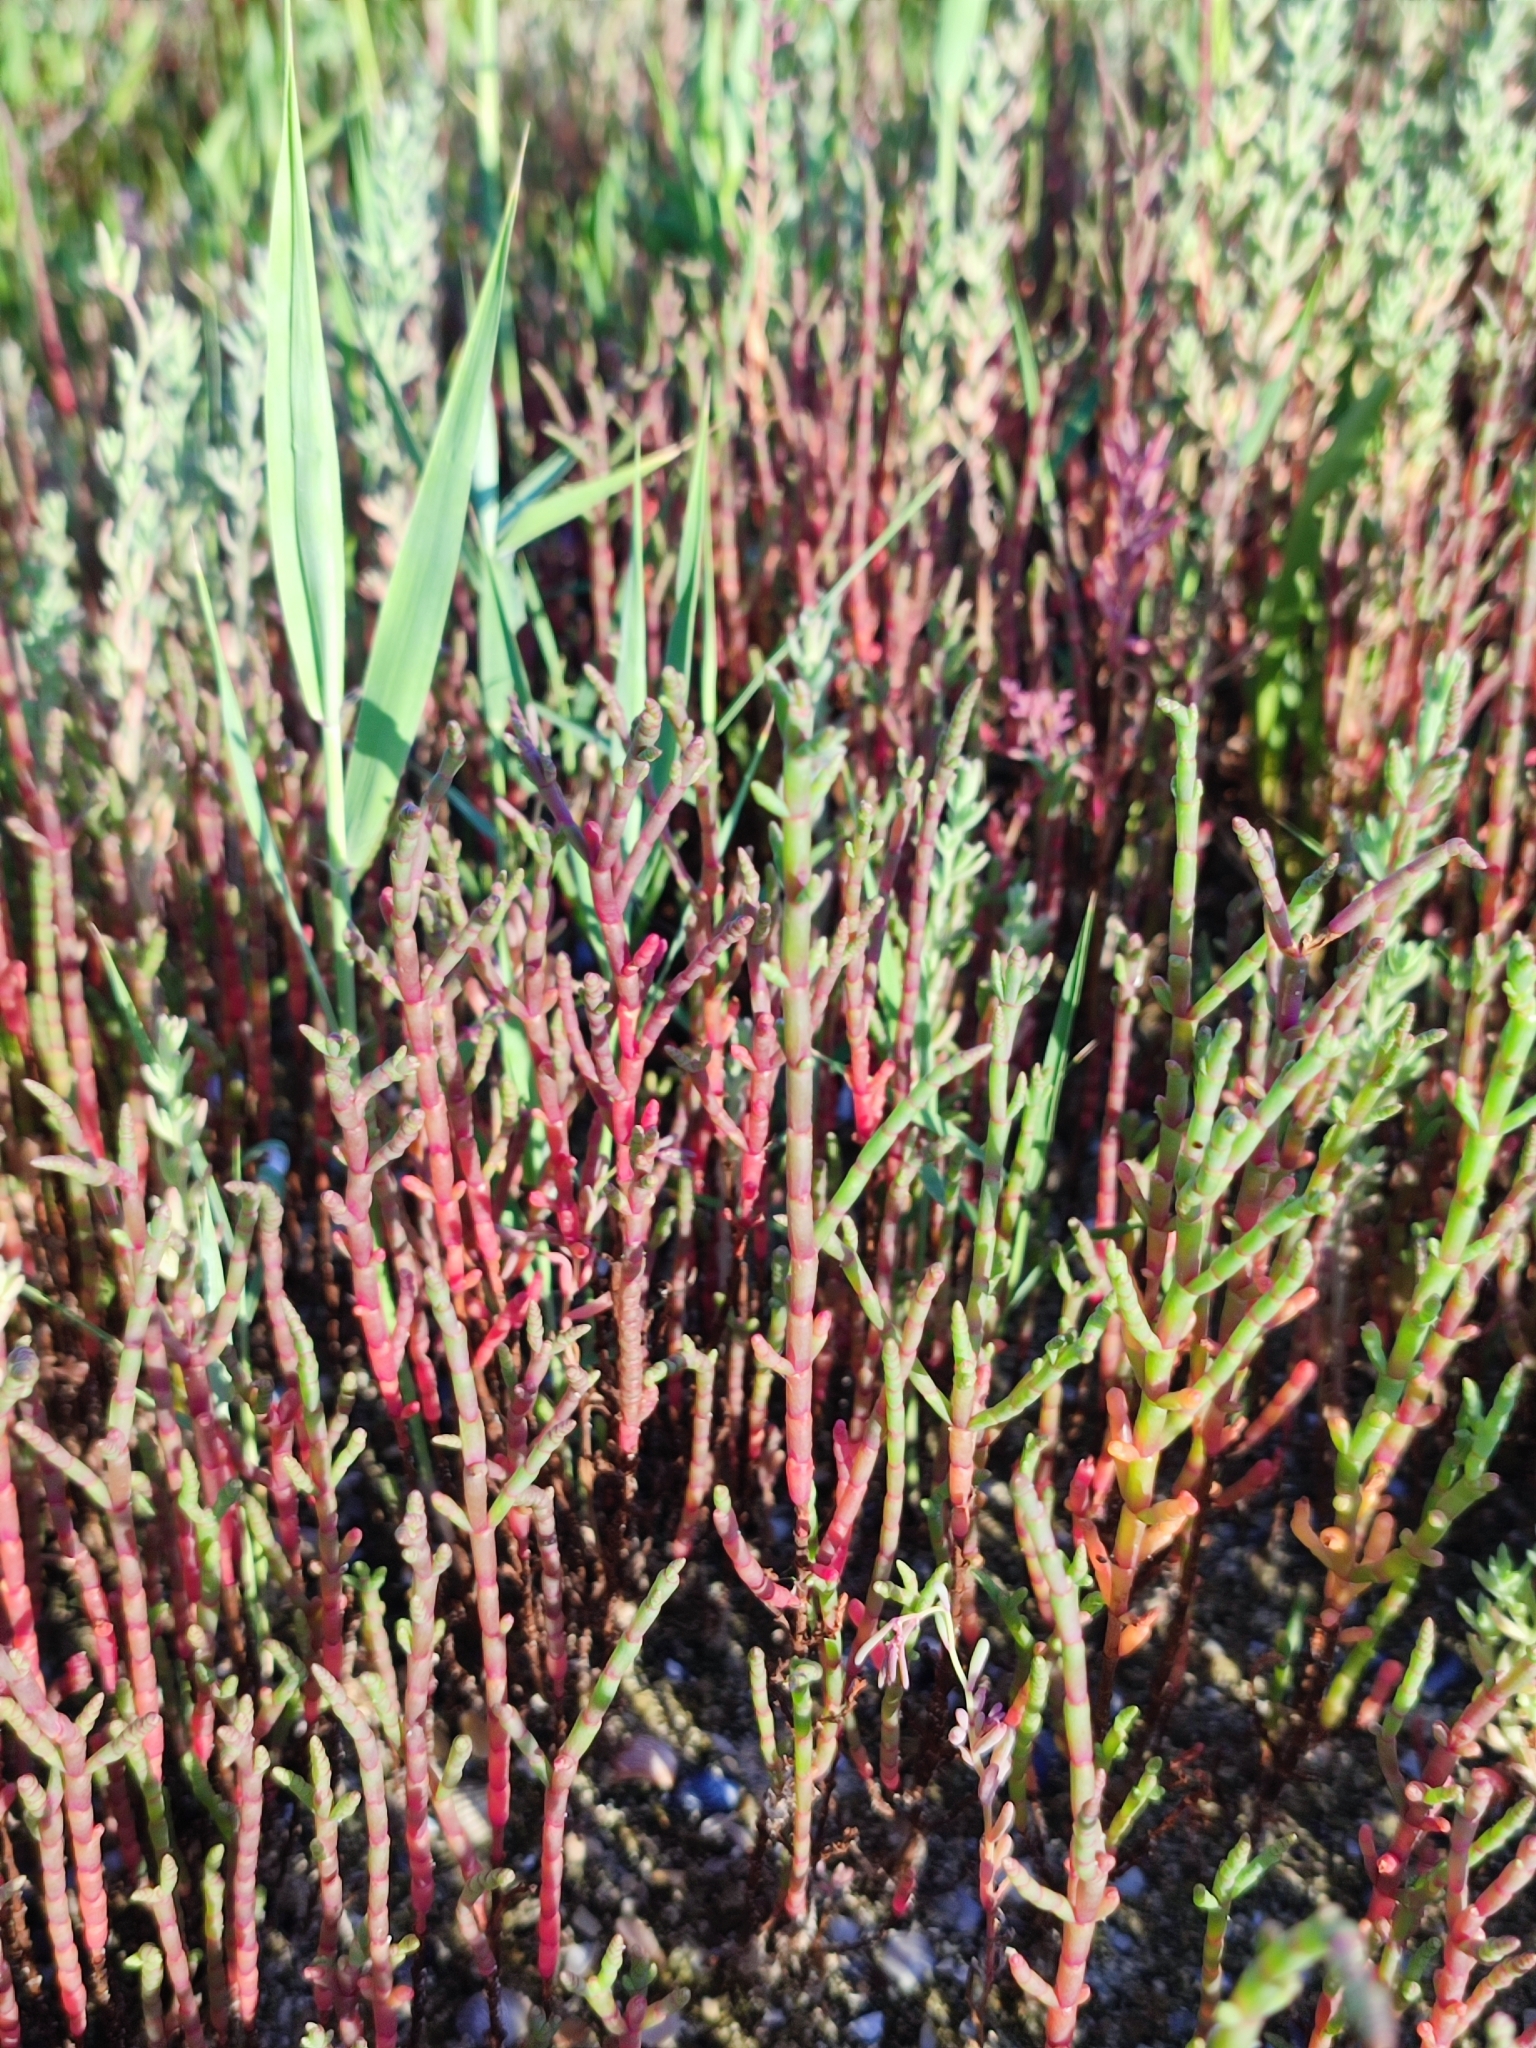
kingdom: Plantae
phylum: Tracheophyta
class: Magnoliopsida
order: Caryophyllales
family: Amaranthaceae
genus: Salicornia
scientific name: Salicornia perennans
